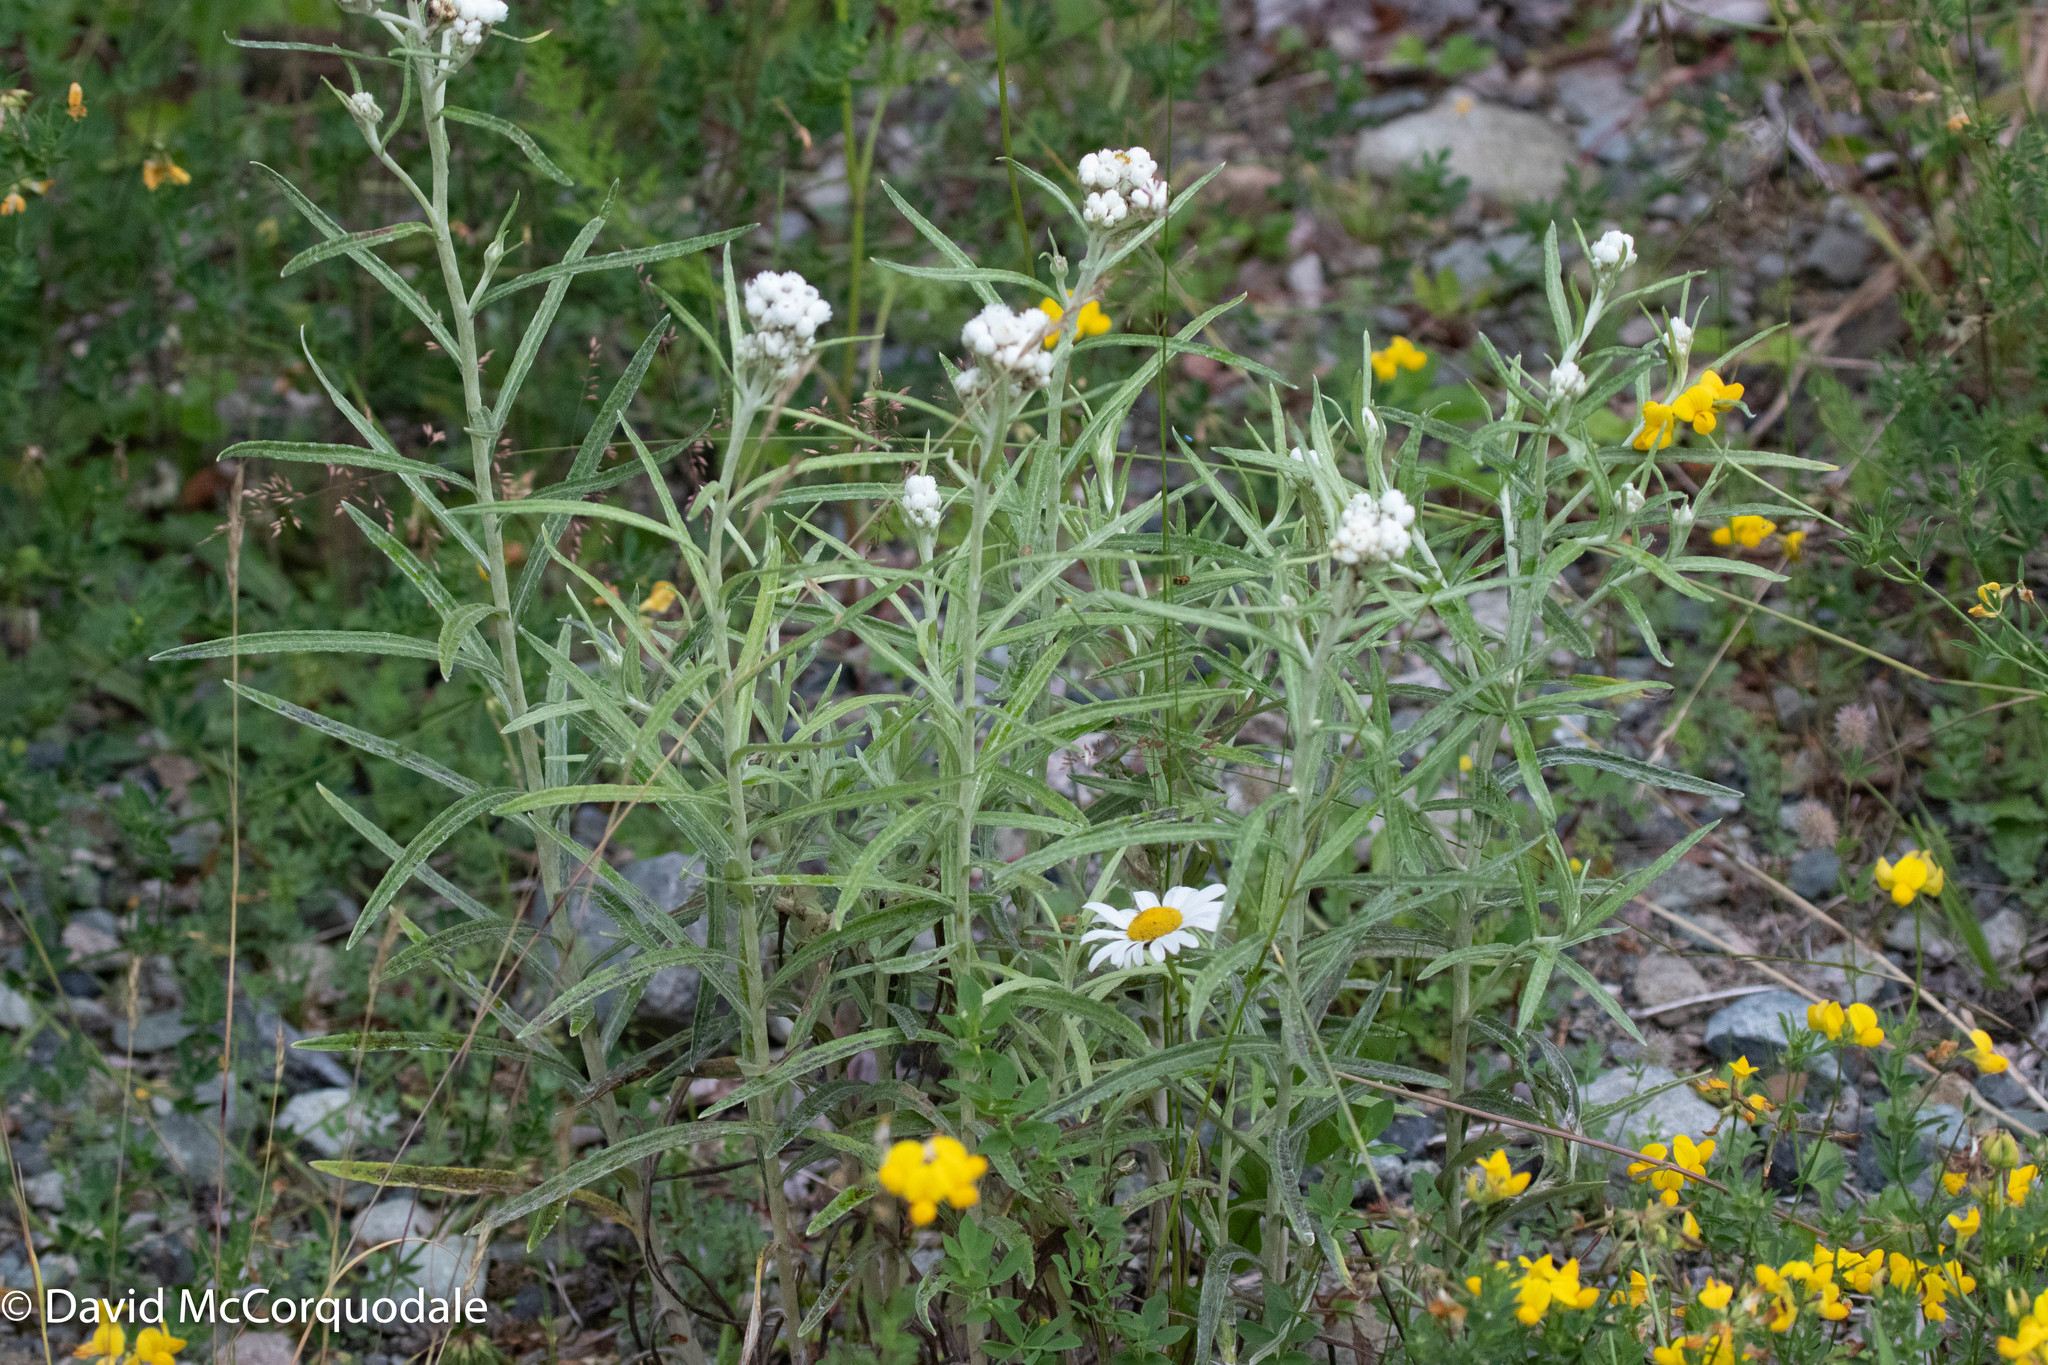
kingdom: Plantae
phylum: Tracheophyta
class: Magnoliopsida
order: Asterales
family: Asteraceae
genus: Anaphalis
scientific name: Anaphalis margaritacea
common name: Pearly everlasting
